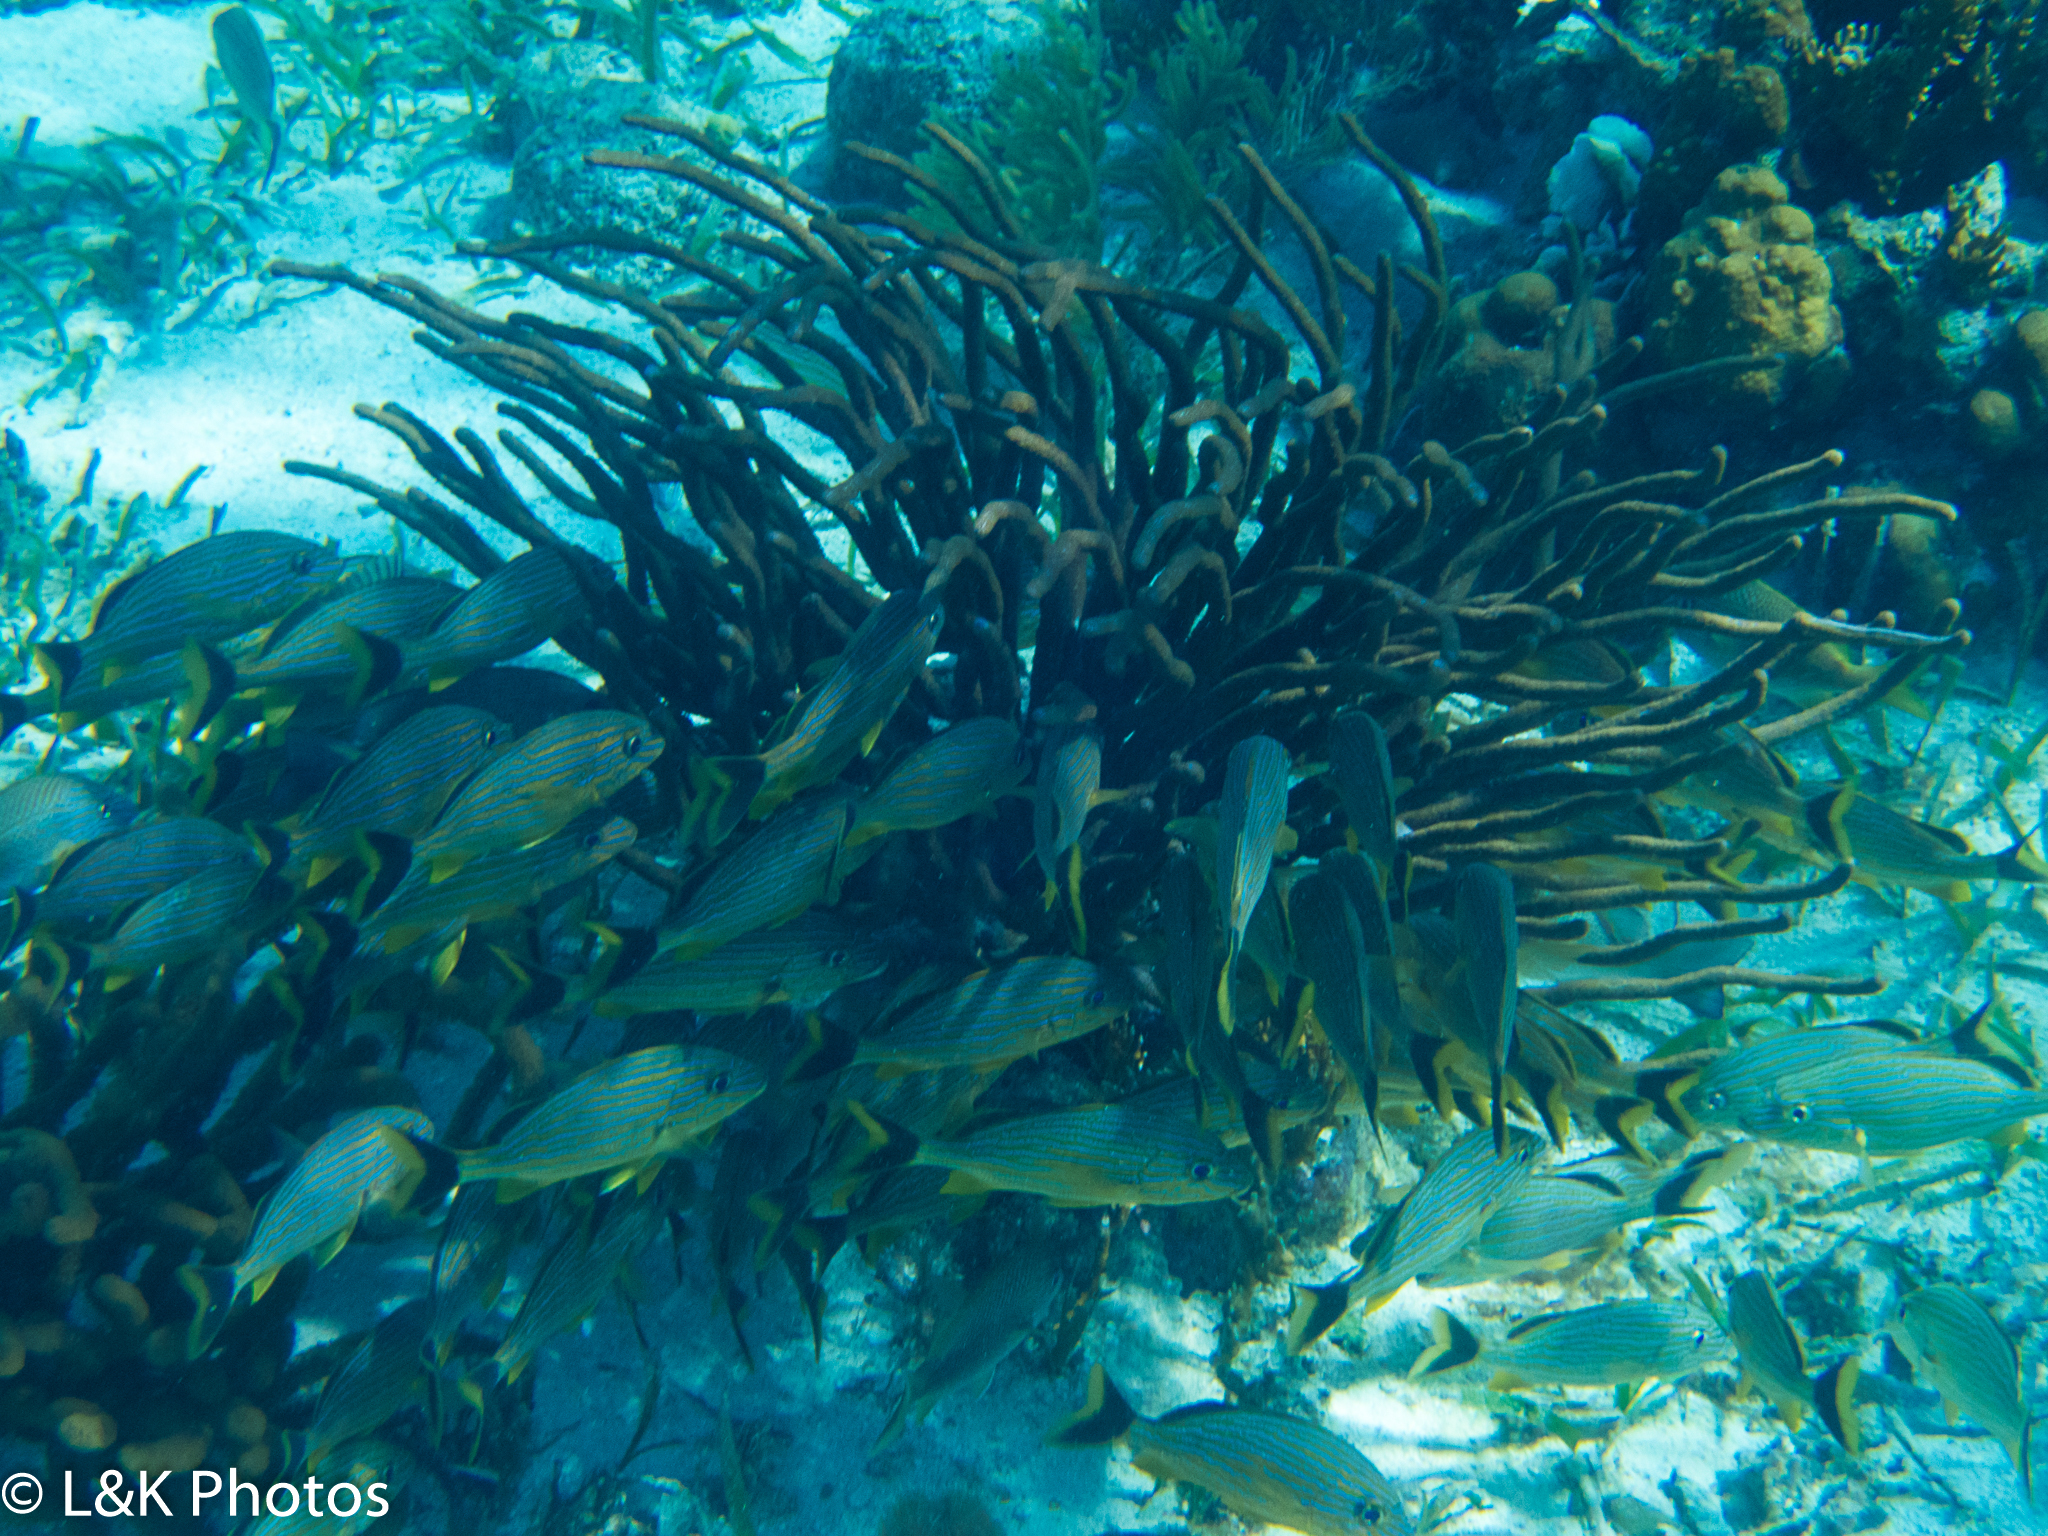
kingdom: Animalia
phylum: Chordata
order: Perciformes
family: Haemulidae
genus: Haemulon
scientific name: Haemulon sciurus
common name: Bluestriped grunt
